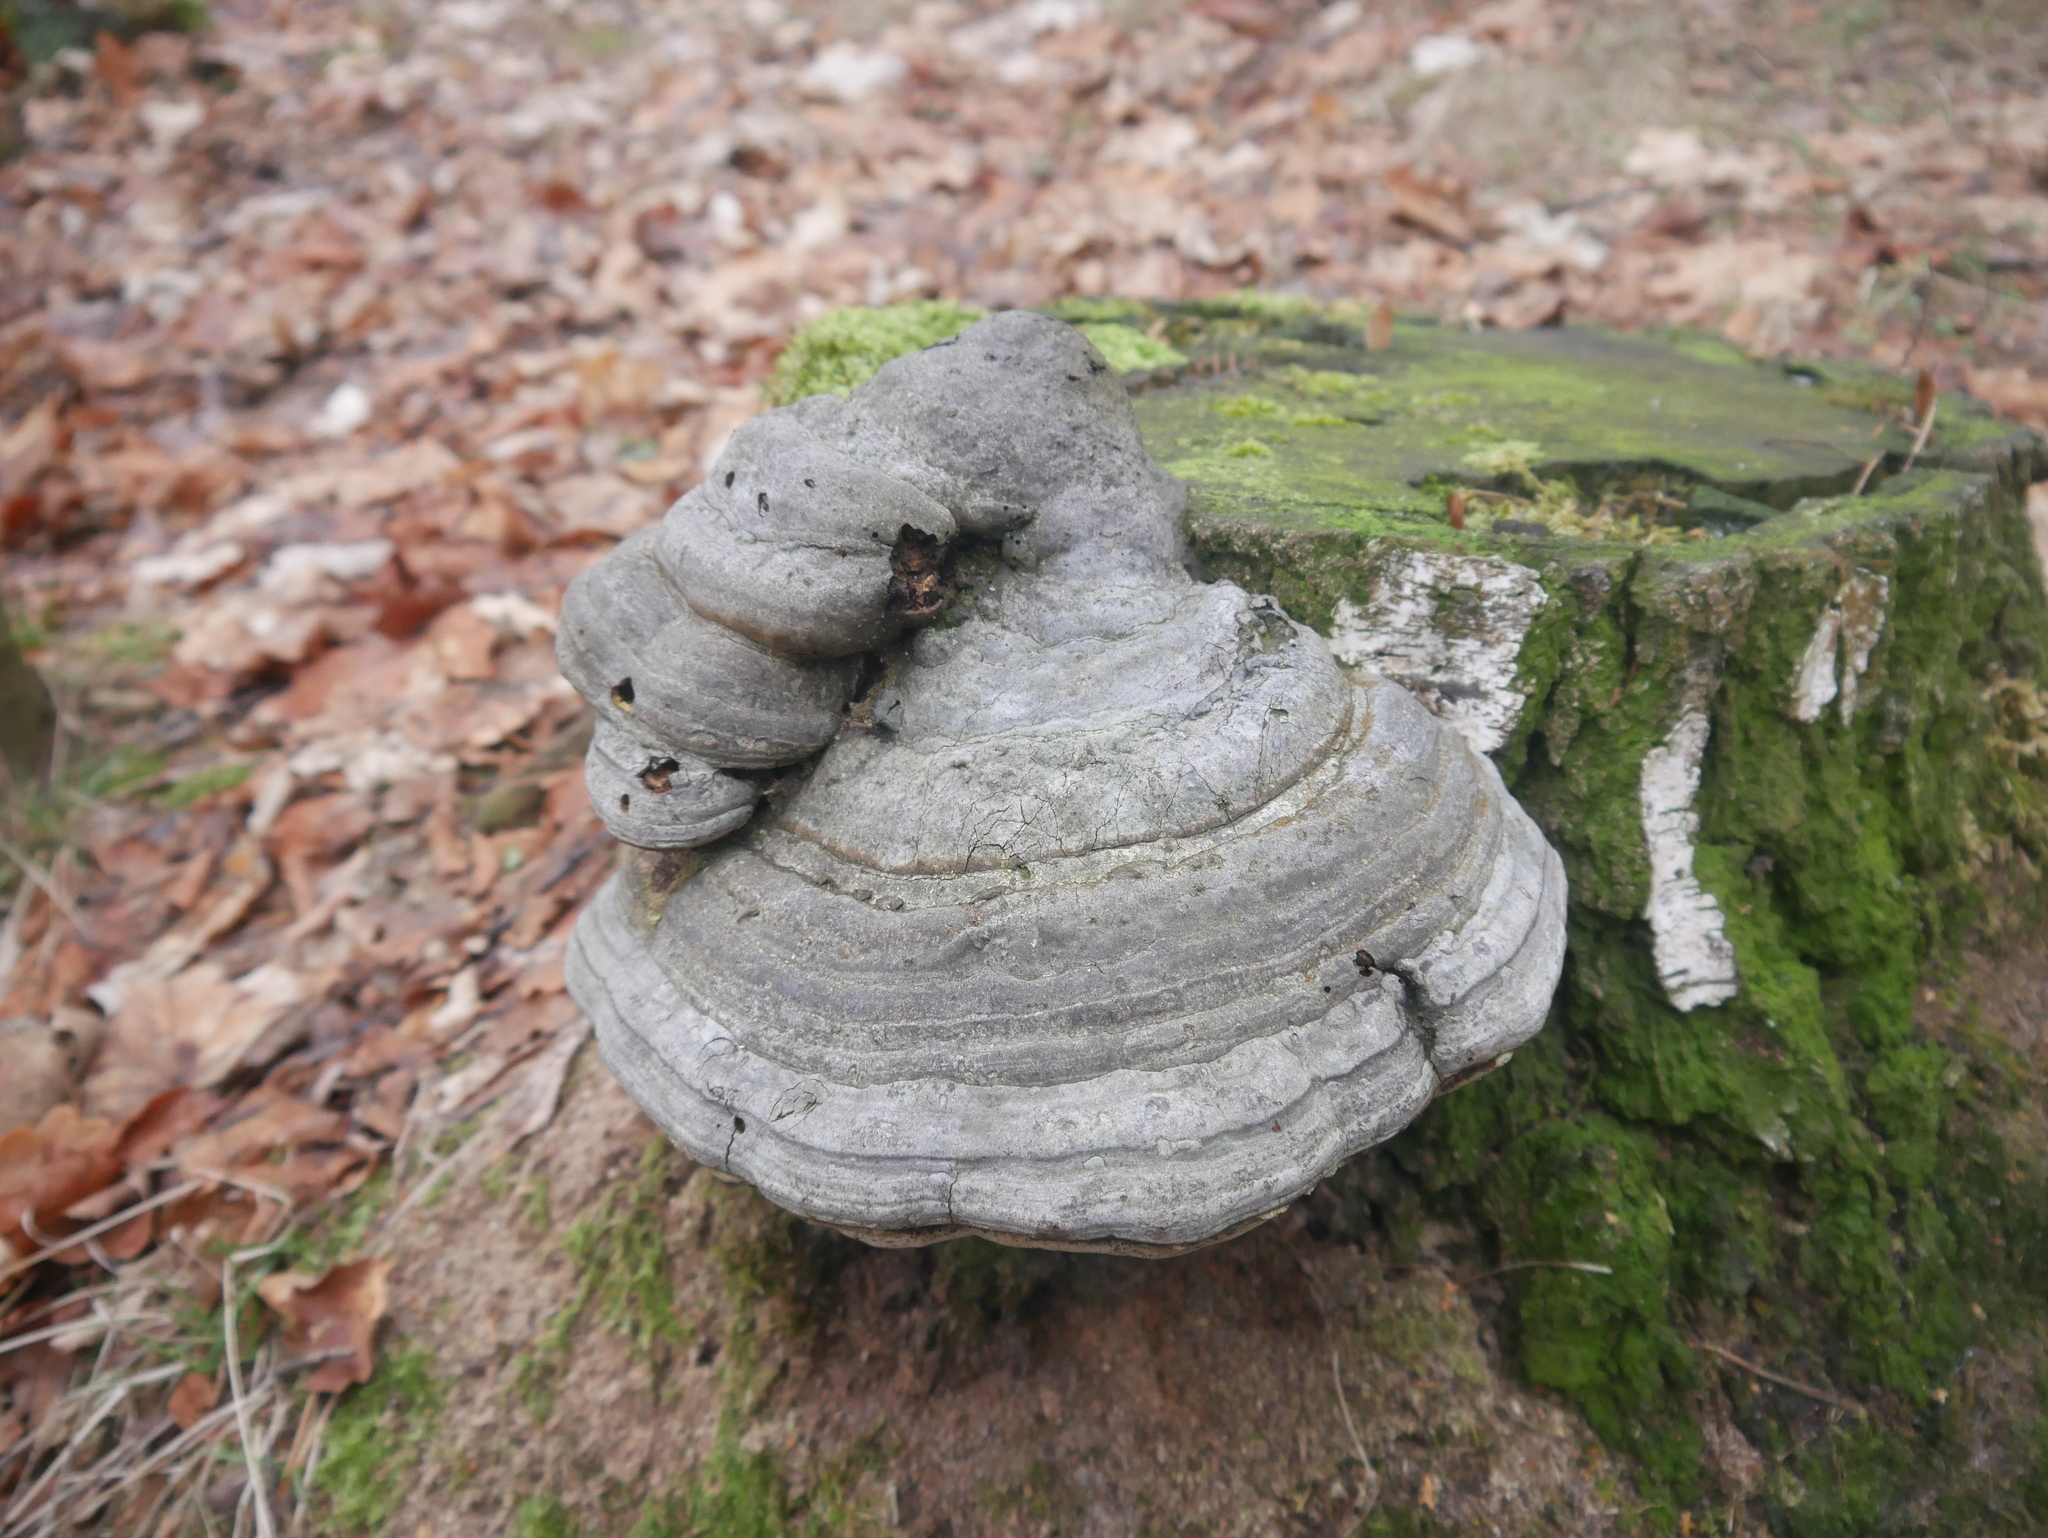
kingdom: Fungi
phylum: Basidiomycota
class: Agaricomycetes
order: Polyporales
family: Polyporaceae
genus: Fomes
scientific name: Fomes fomentarius
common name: Hoof fungus
